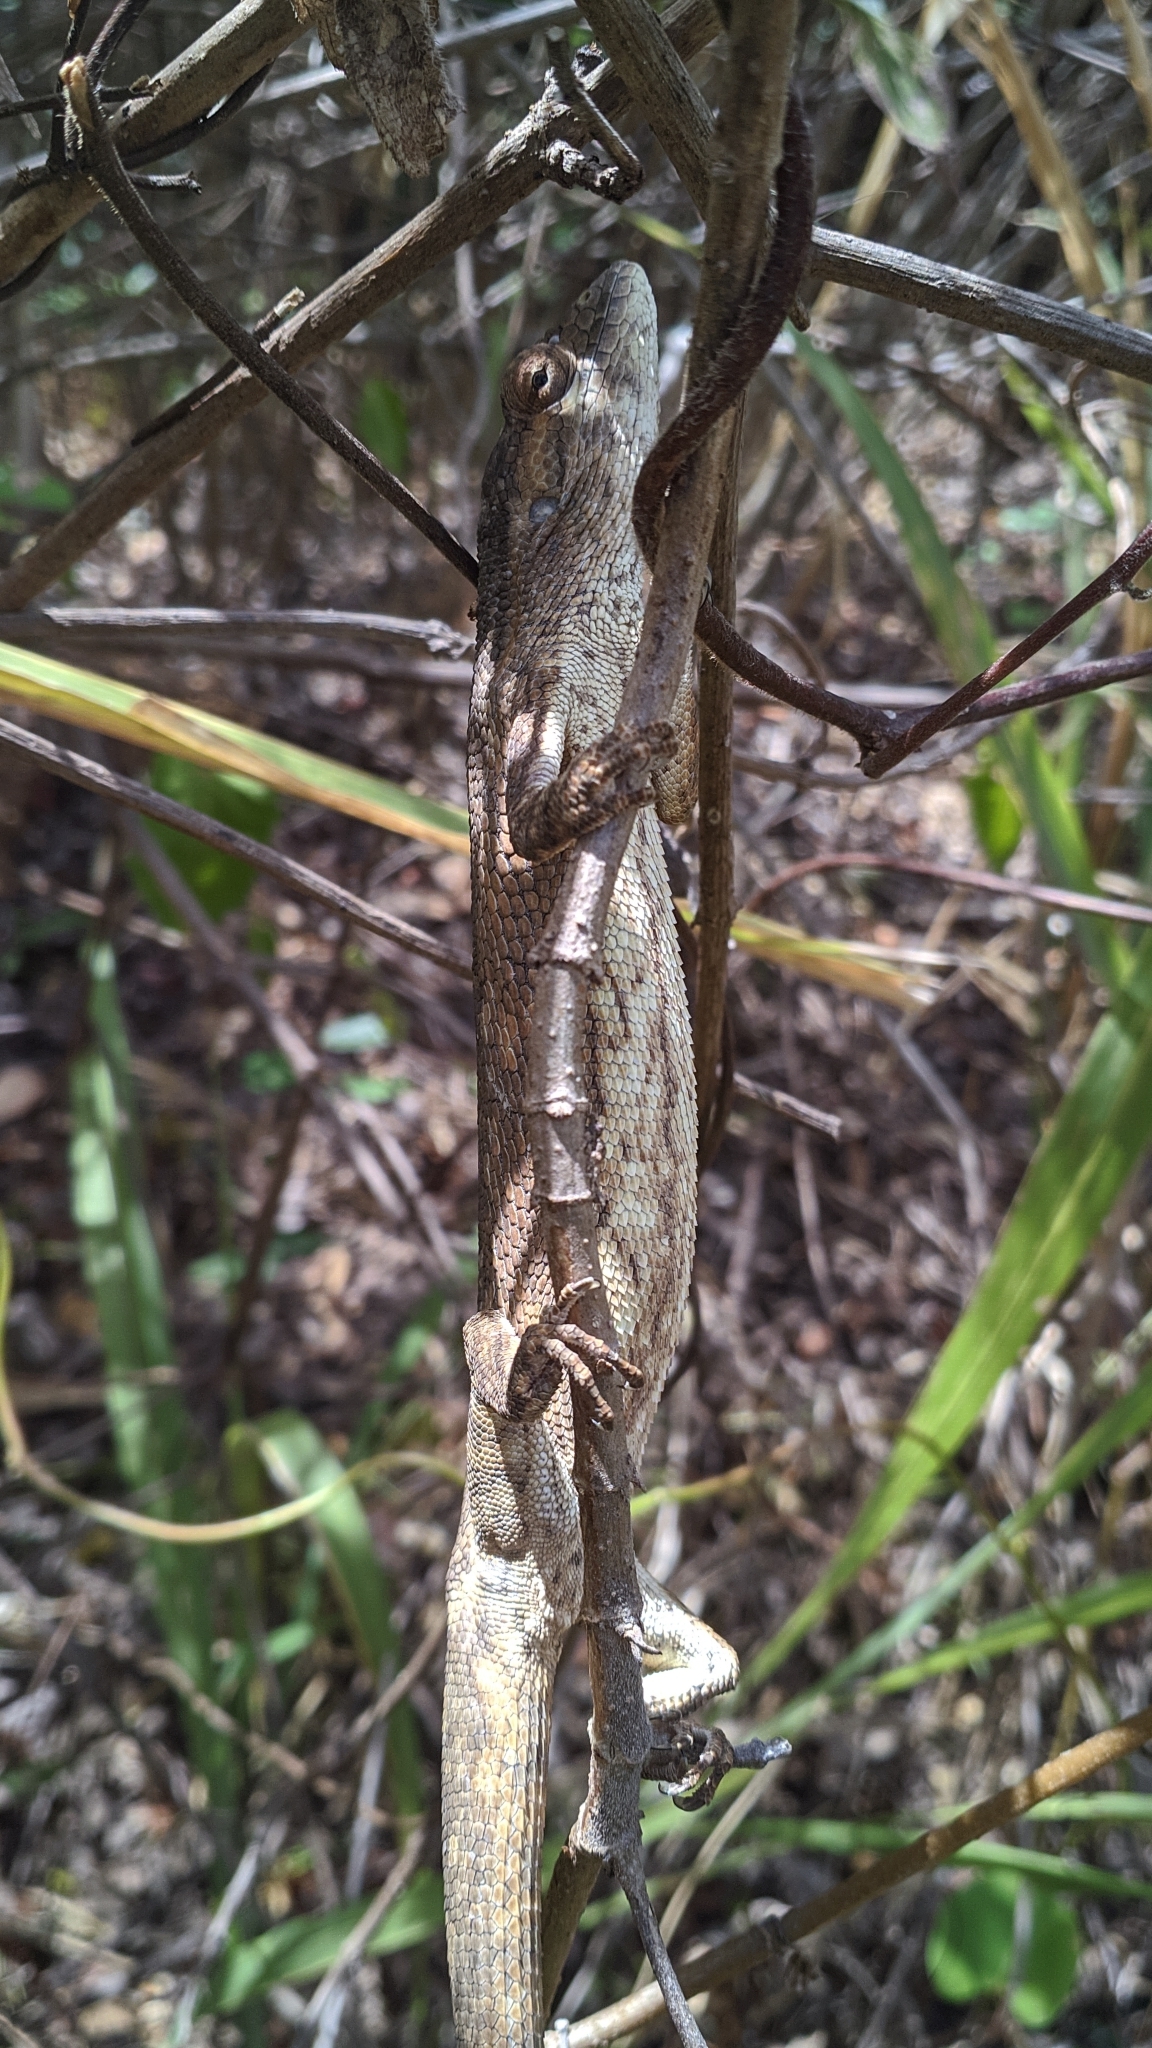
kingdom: Animalia
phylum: Chordata
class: Squamata
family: Polychrotidae
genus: Polychrus
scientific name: Polychrus acutirostris
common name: Brazilian bush anole
